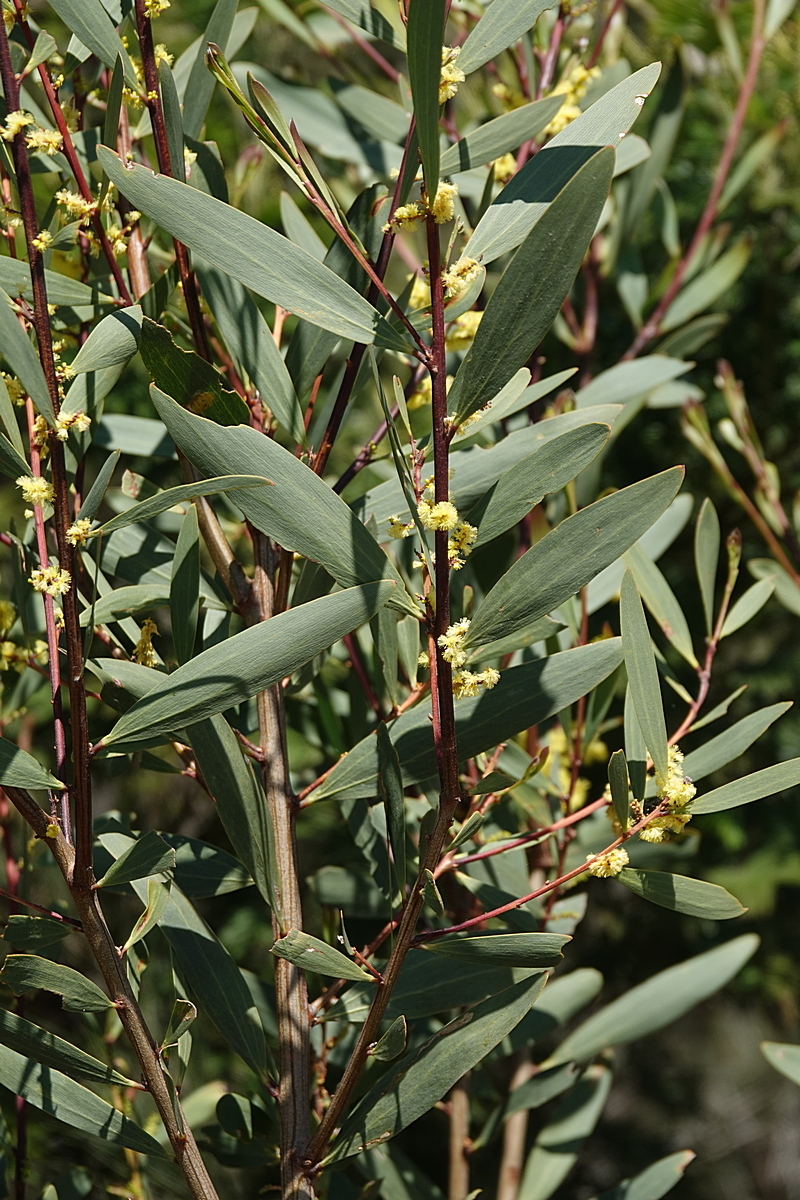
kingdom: Plantae
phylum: Tracheophyta
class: Magnoliopsida
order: Fabales
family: Fabaceae
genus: Acacia
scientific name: Acacia longifolia
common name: Sydney golden wattle
